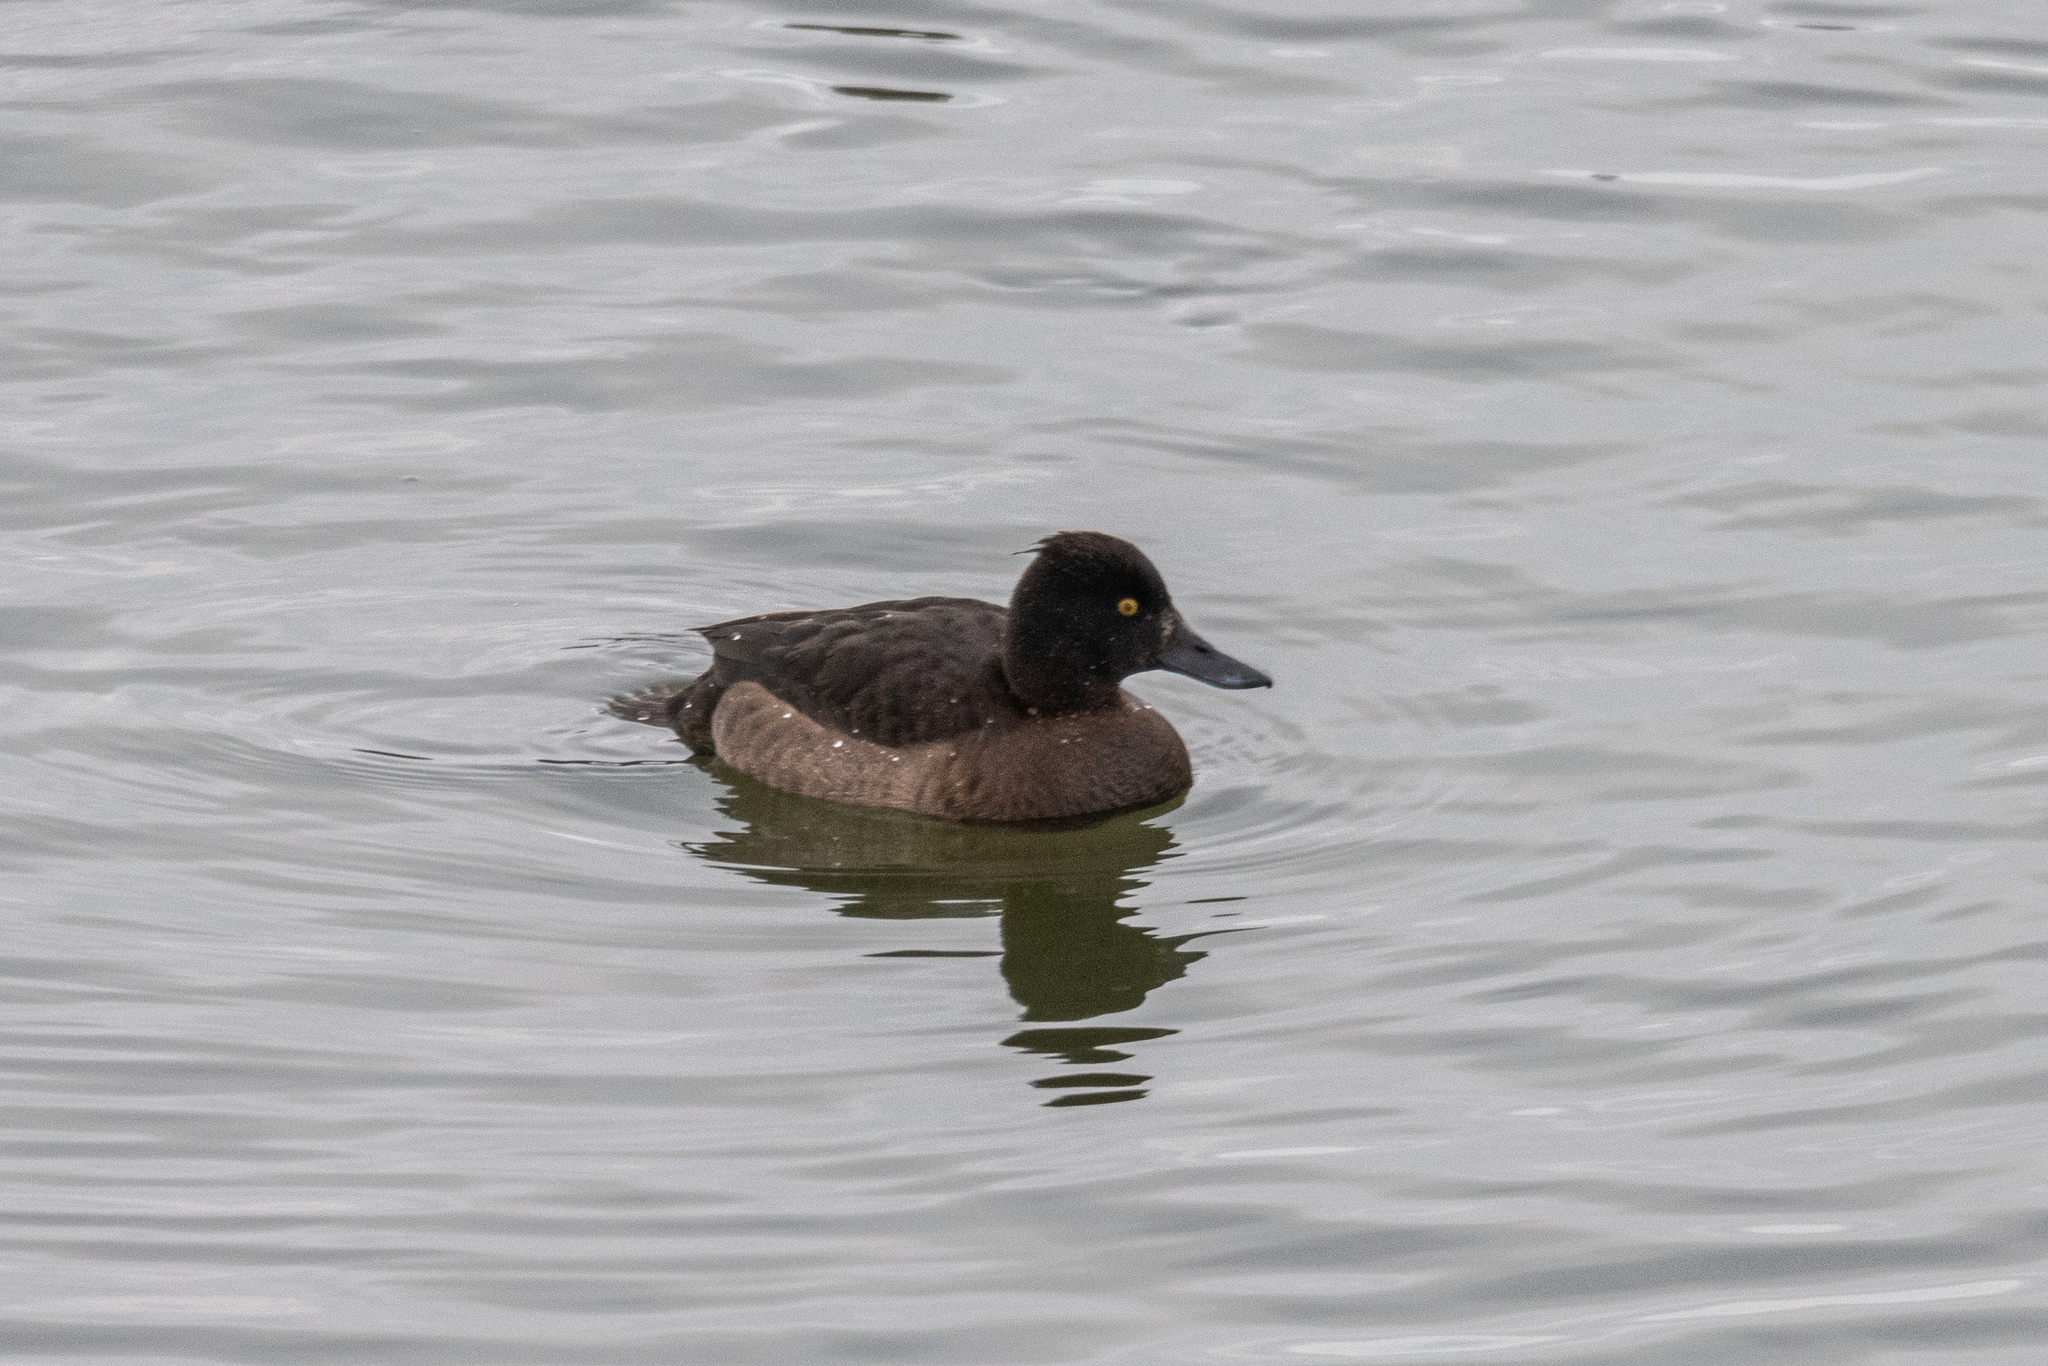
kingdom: Animalia
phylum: Chordata
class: Aves
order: Anseriformes
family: Anatidae
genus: Aythya
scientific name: Aythya fuligula
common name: Tufted duck
